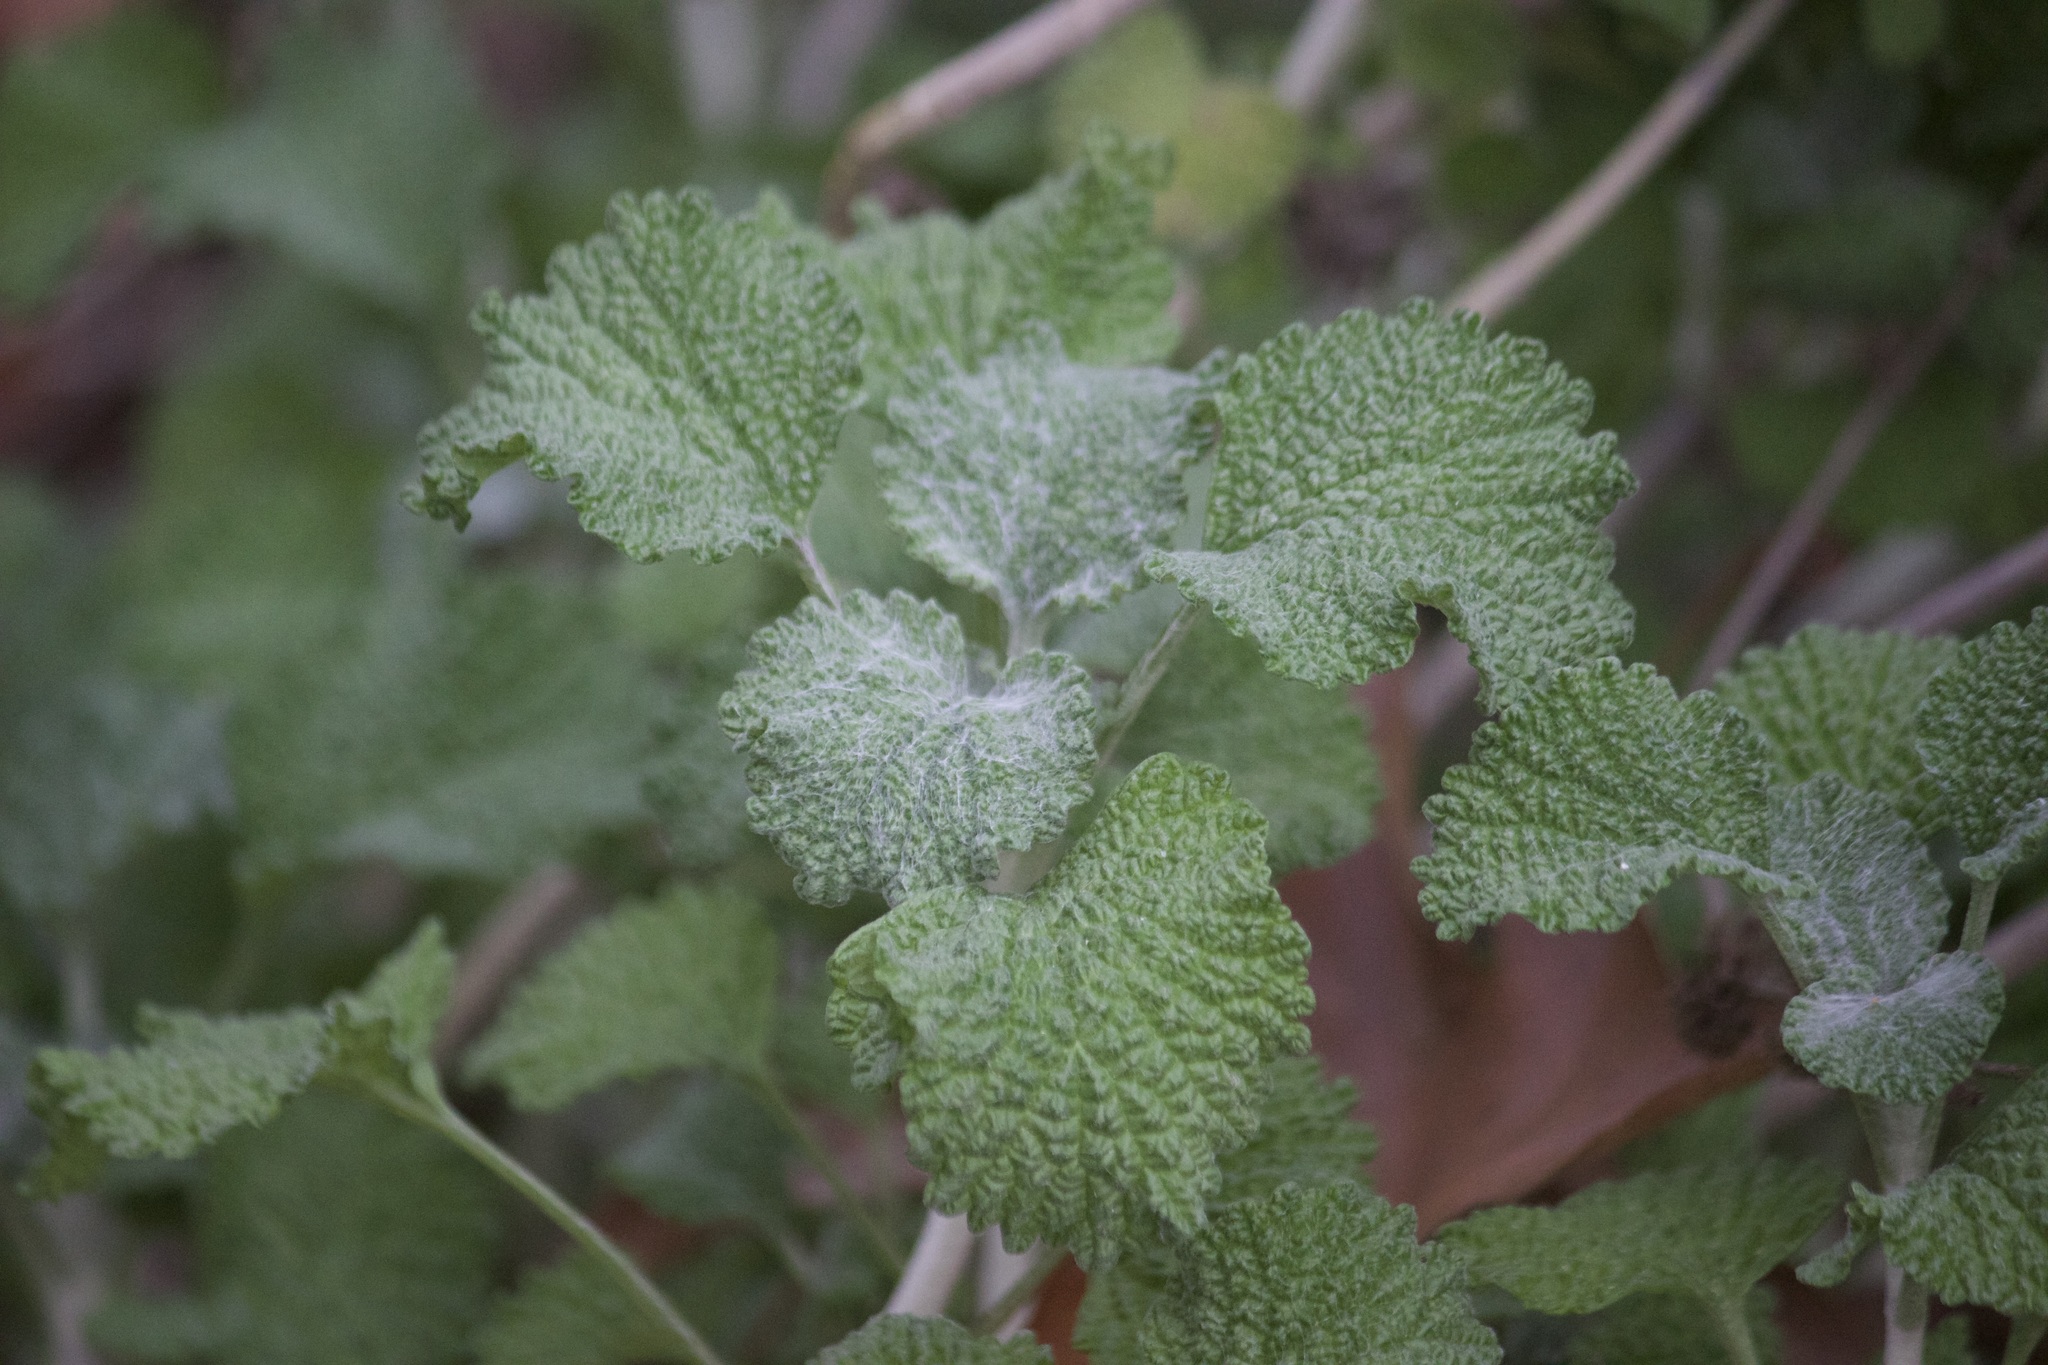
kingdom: Plantae
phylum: Tracheophyta
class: Magnoliopsida
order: Lamiales
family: Lamiaceae
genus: Marrubium
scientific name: Marrubium vulgare
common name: Horehound
